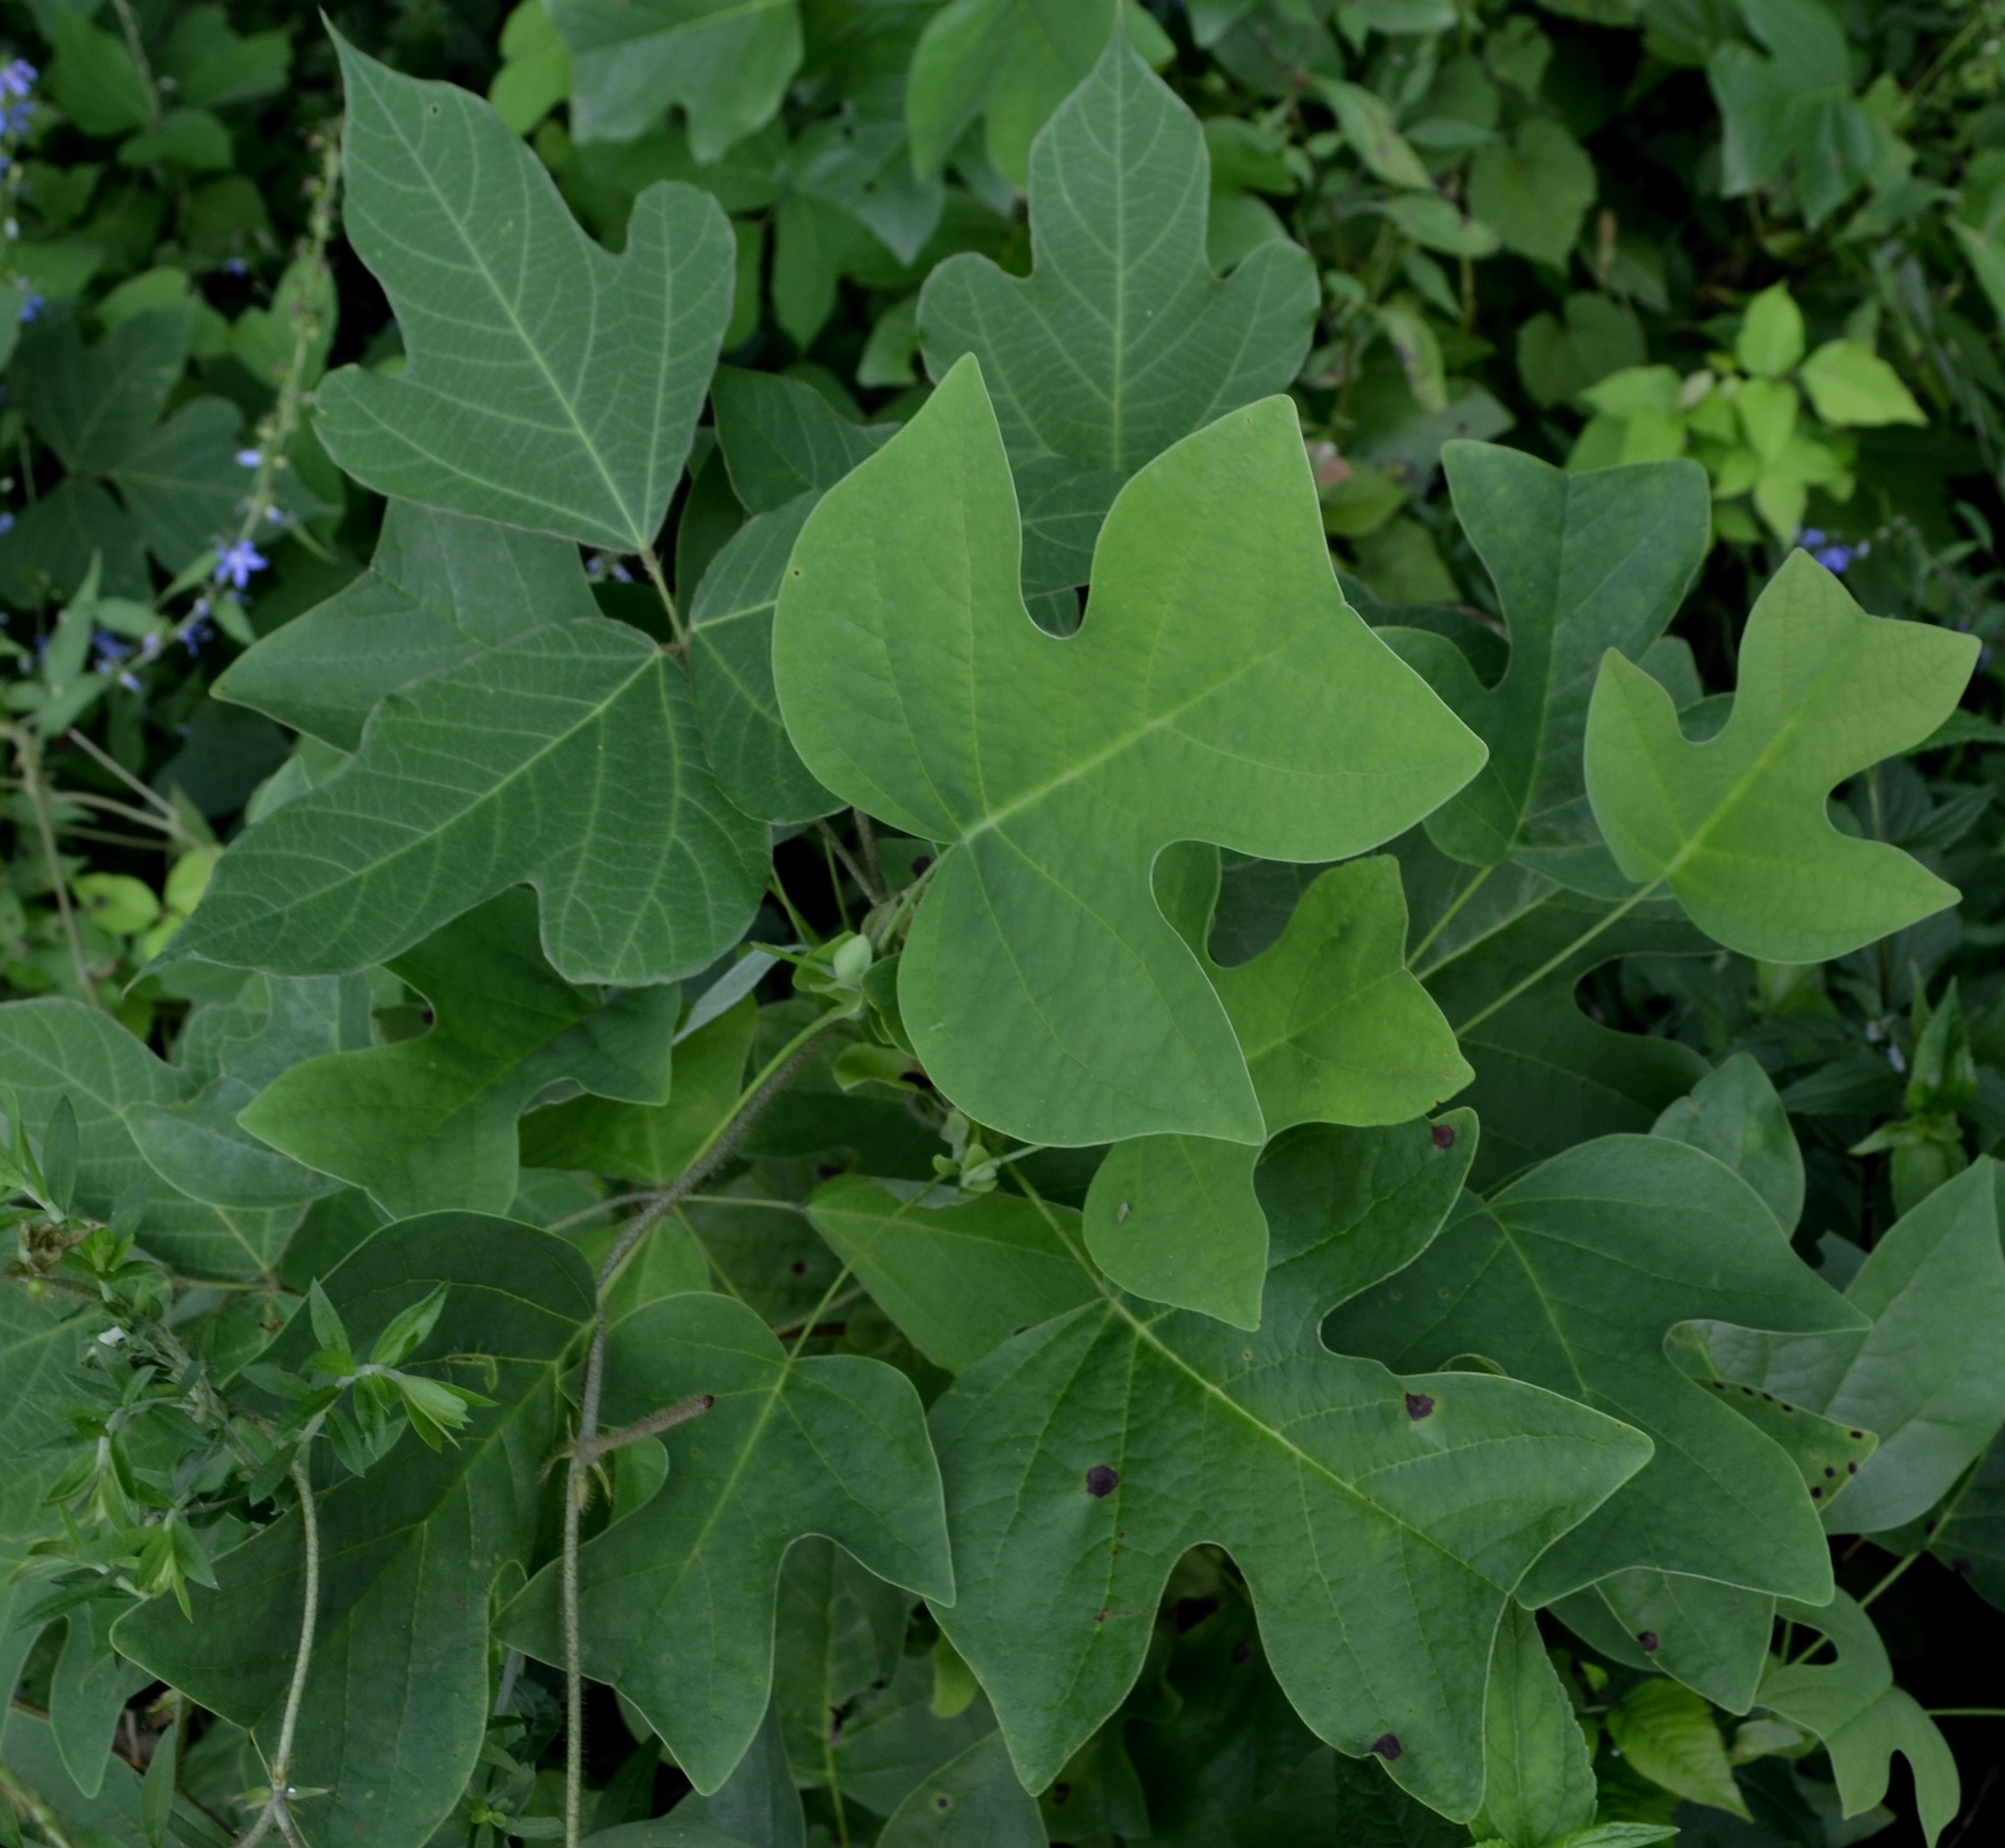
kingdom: Plantae
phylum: Tracheophyta
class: Magnoliopsida
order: Magnoliales
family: Magnoliaceae
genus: Liriodendron
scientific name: Liriodendron tulipifera
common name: Tulip tree
